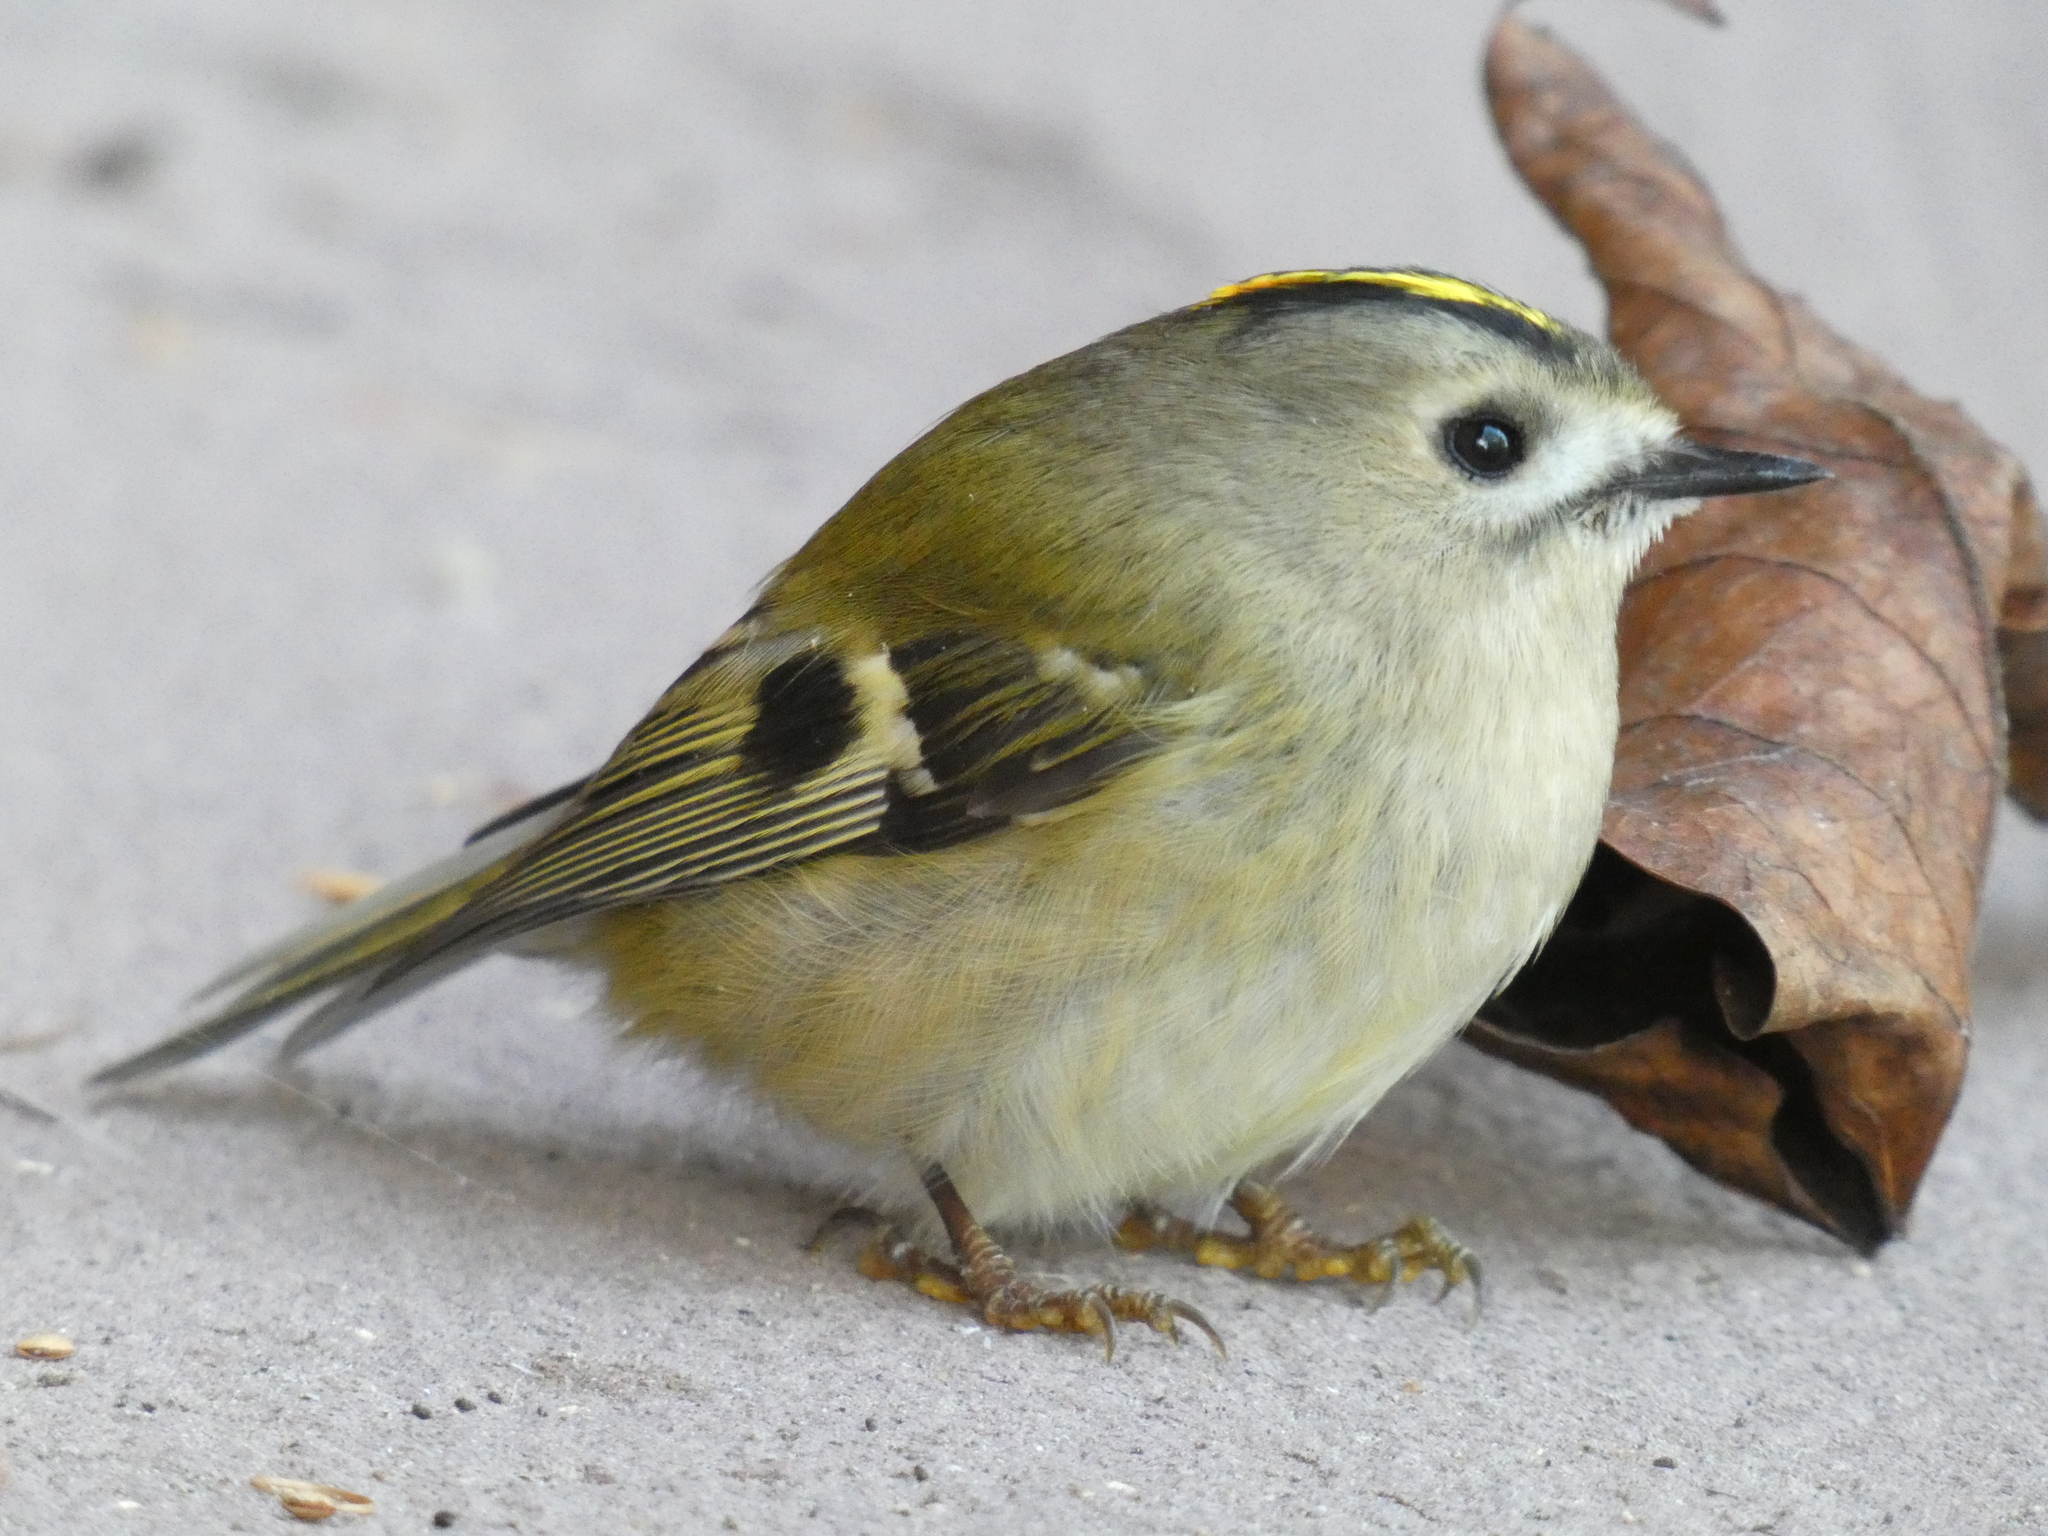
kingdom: Animalia
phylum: Chordata
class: Aves
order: Passeriformes
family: Regulidae
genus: Regulus
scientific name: Regulus regulus
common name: Goldcrest
